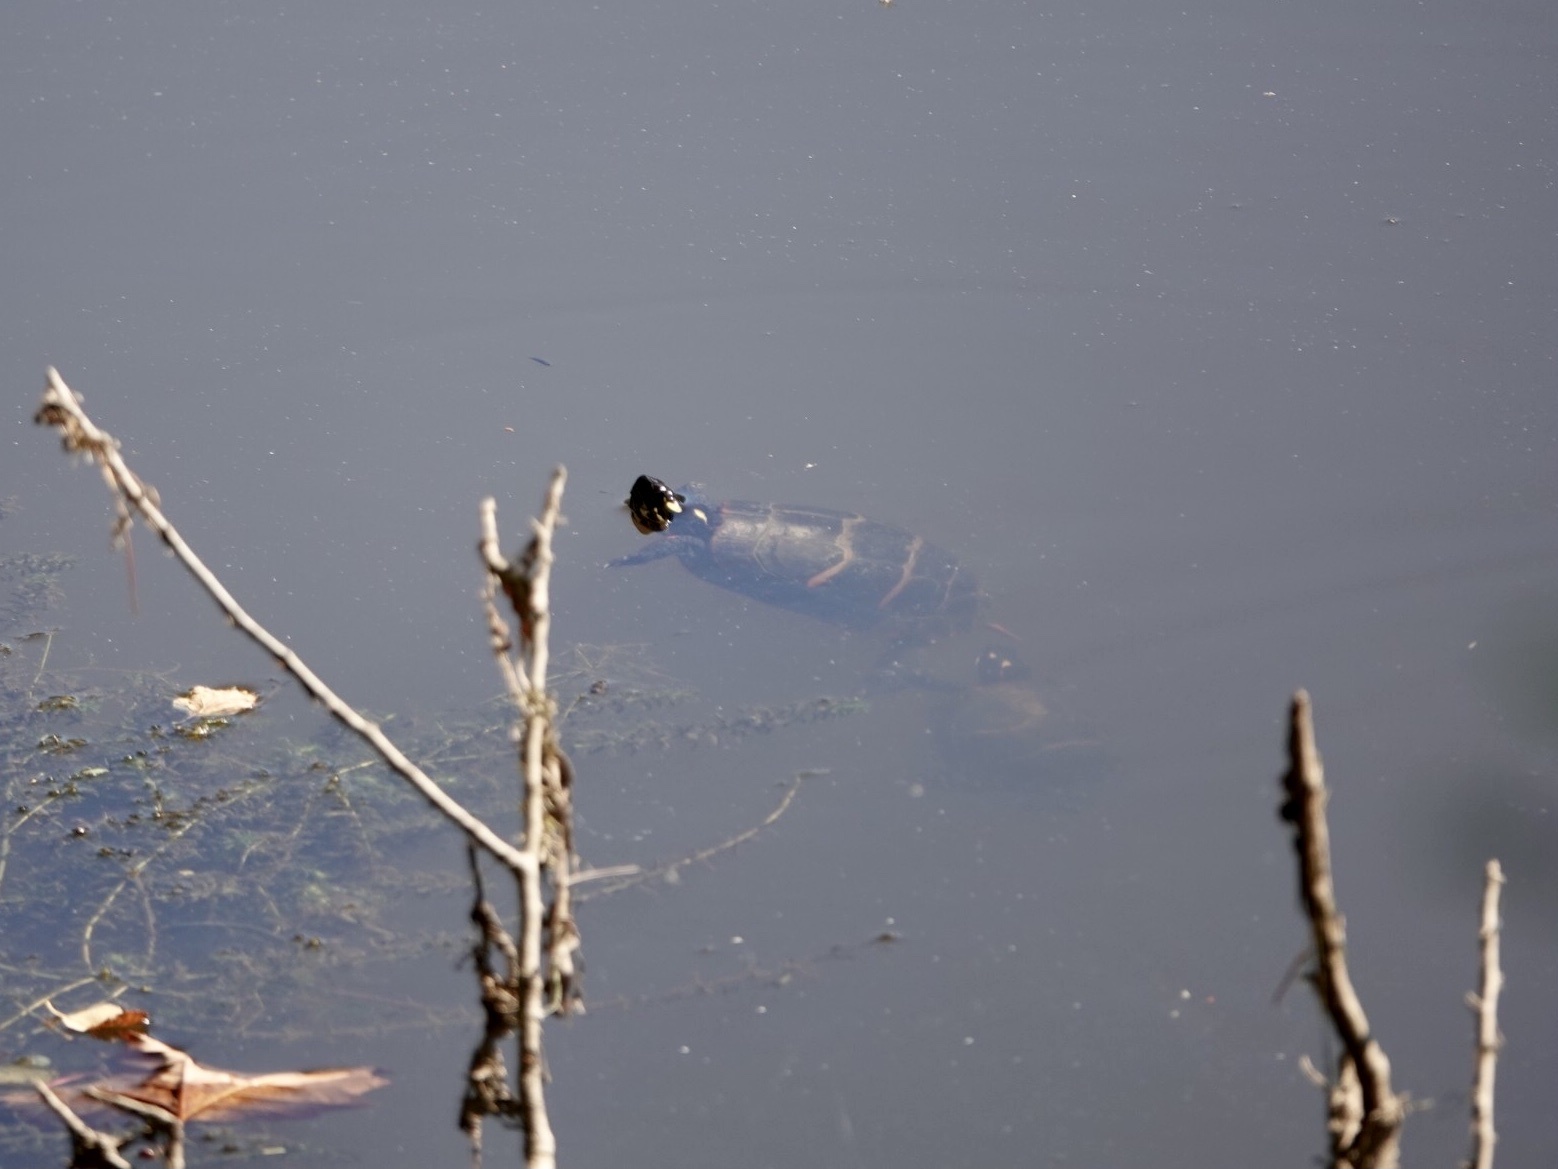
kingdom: Animalia
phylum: Chordata
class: Testudines
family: Emydidae
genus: Chrysemys
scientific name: Chrysemys picta
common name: Painted turtle
